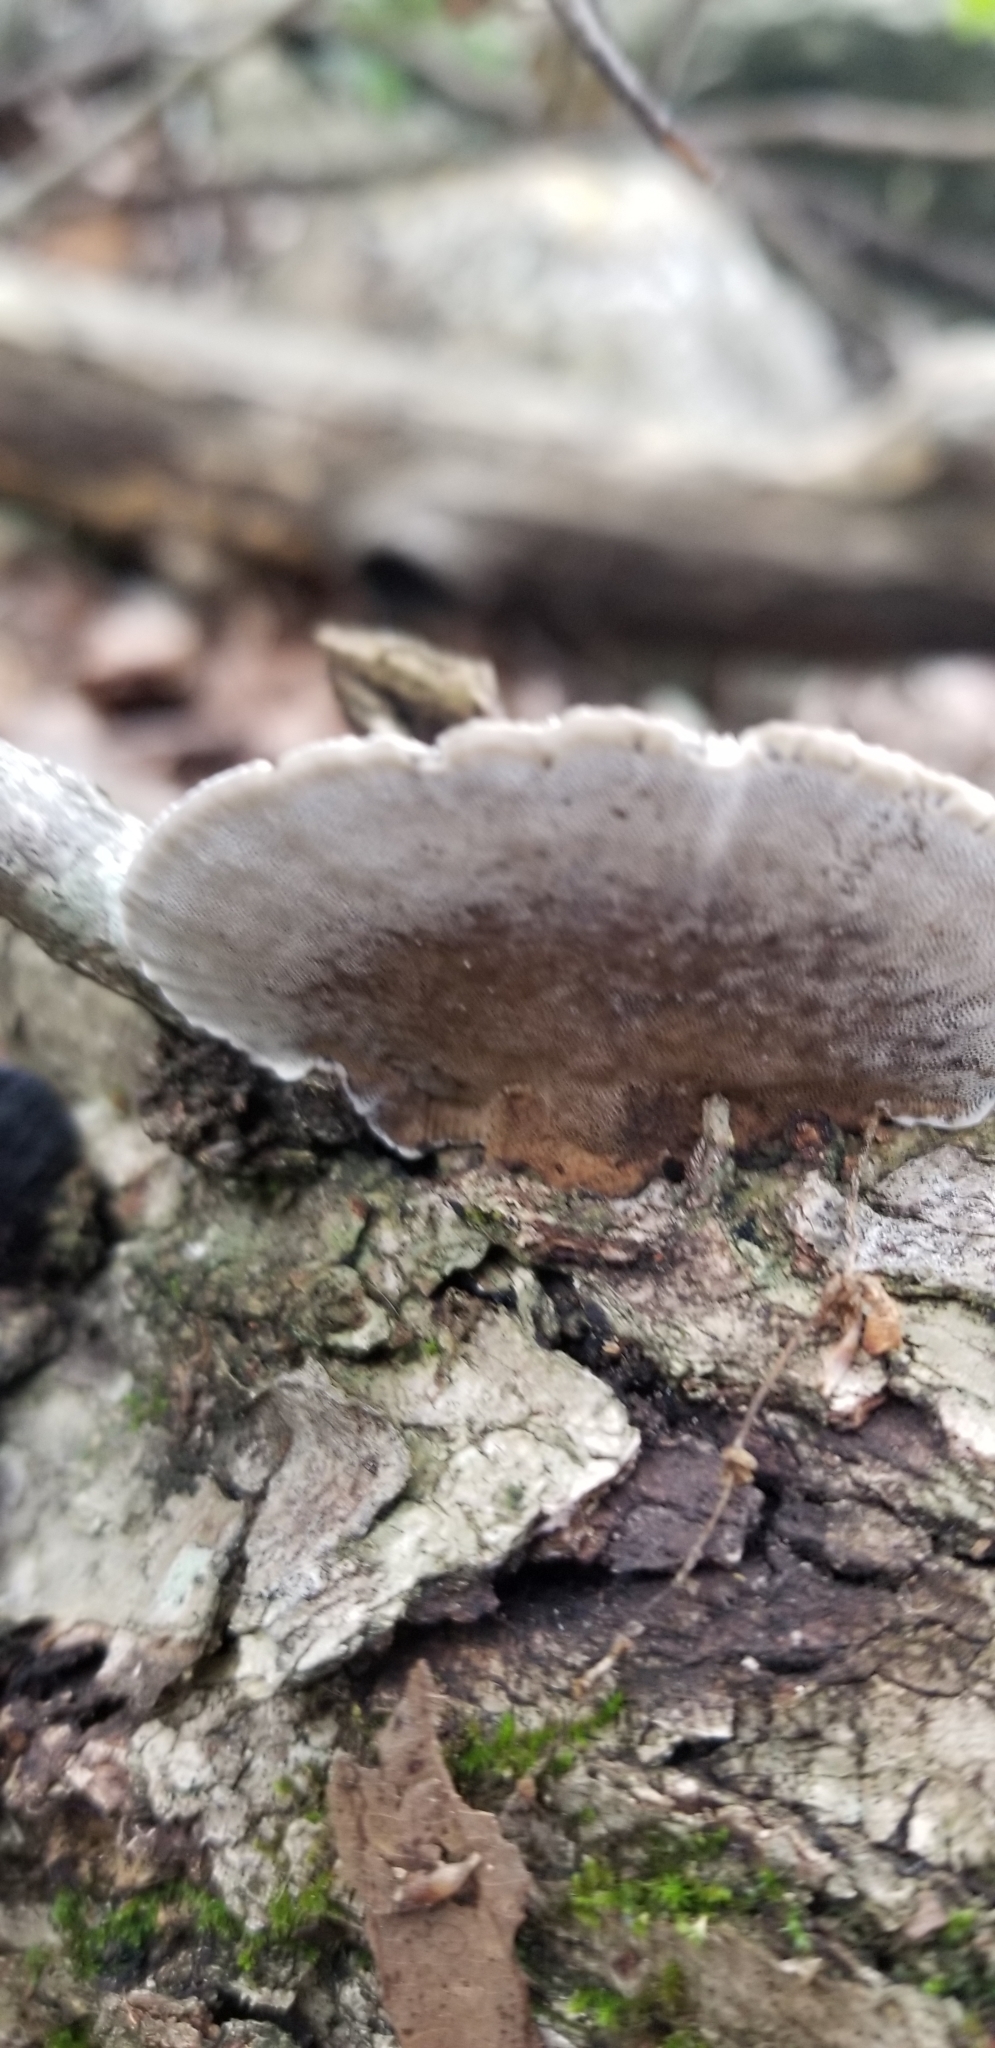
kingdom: Fungi
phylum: Basidiomycota
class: Agaricomycetes
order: Polyporales
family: Cerrenaceae
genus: Cerrena
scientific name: Cerrena hydnoides
